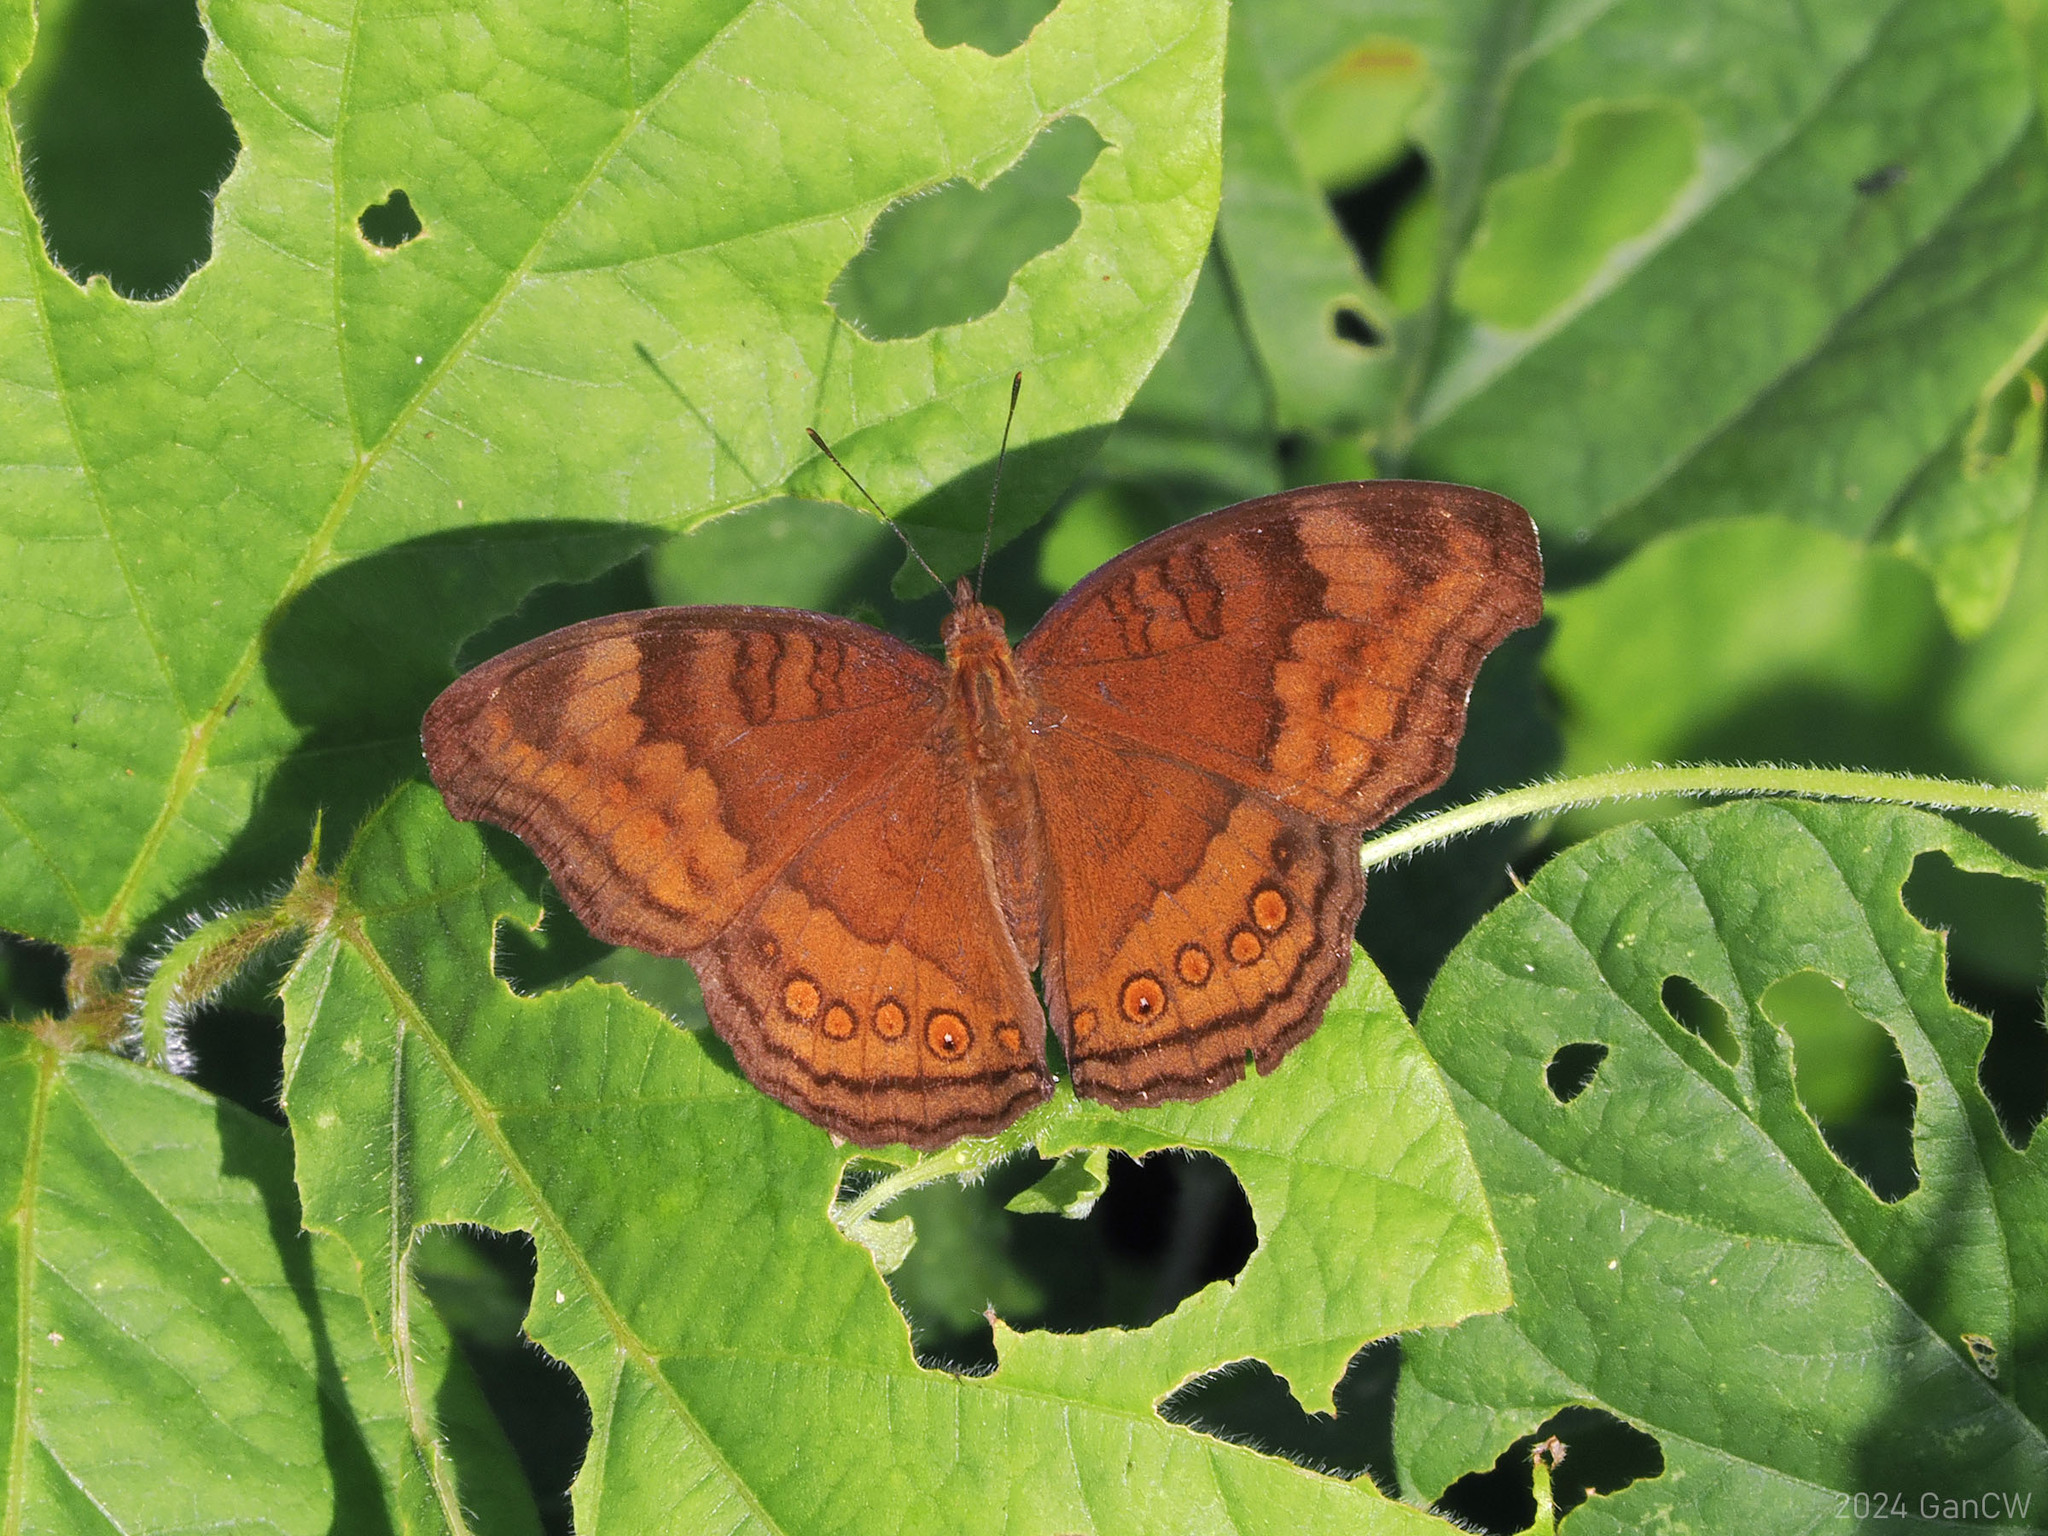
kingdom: Animalia
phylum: Arthropoda
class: Insecta
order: Lepidoptera
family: Nymphalidae
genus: Junonia
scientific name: Junonia hedonia
